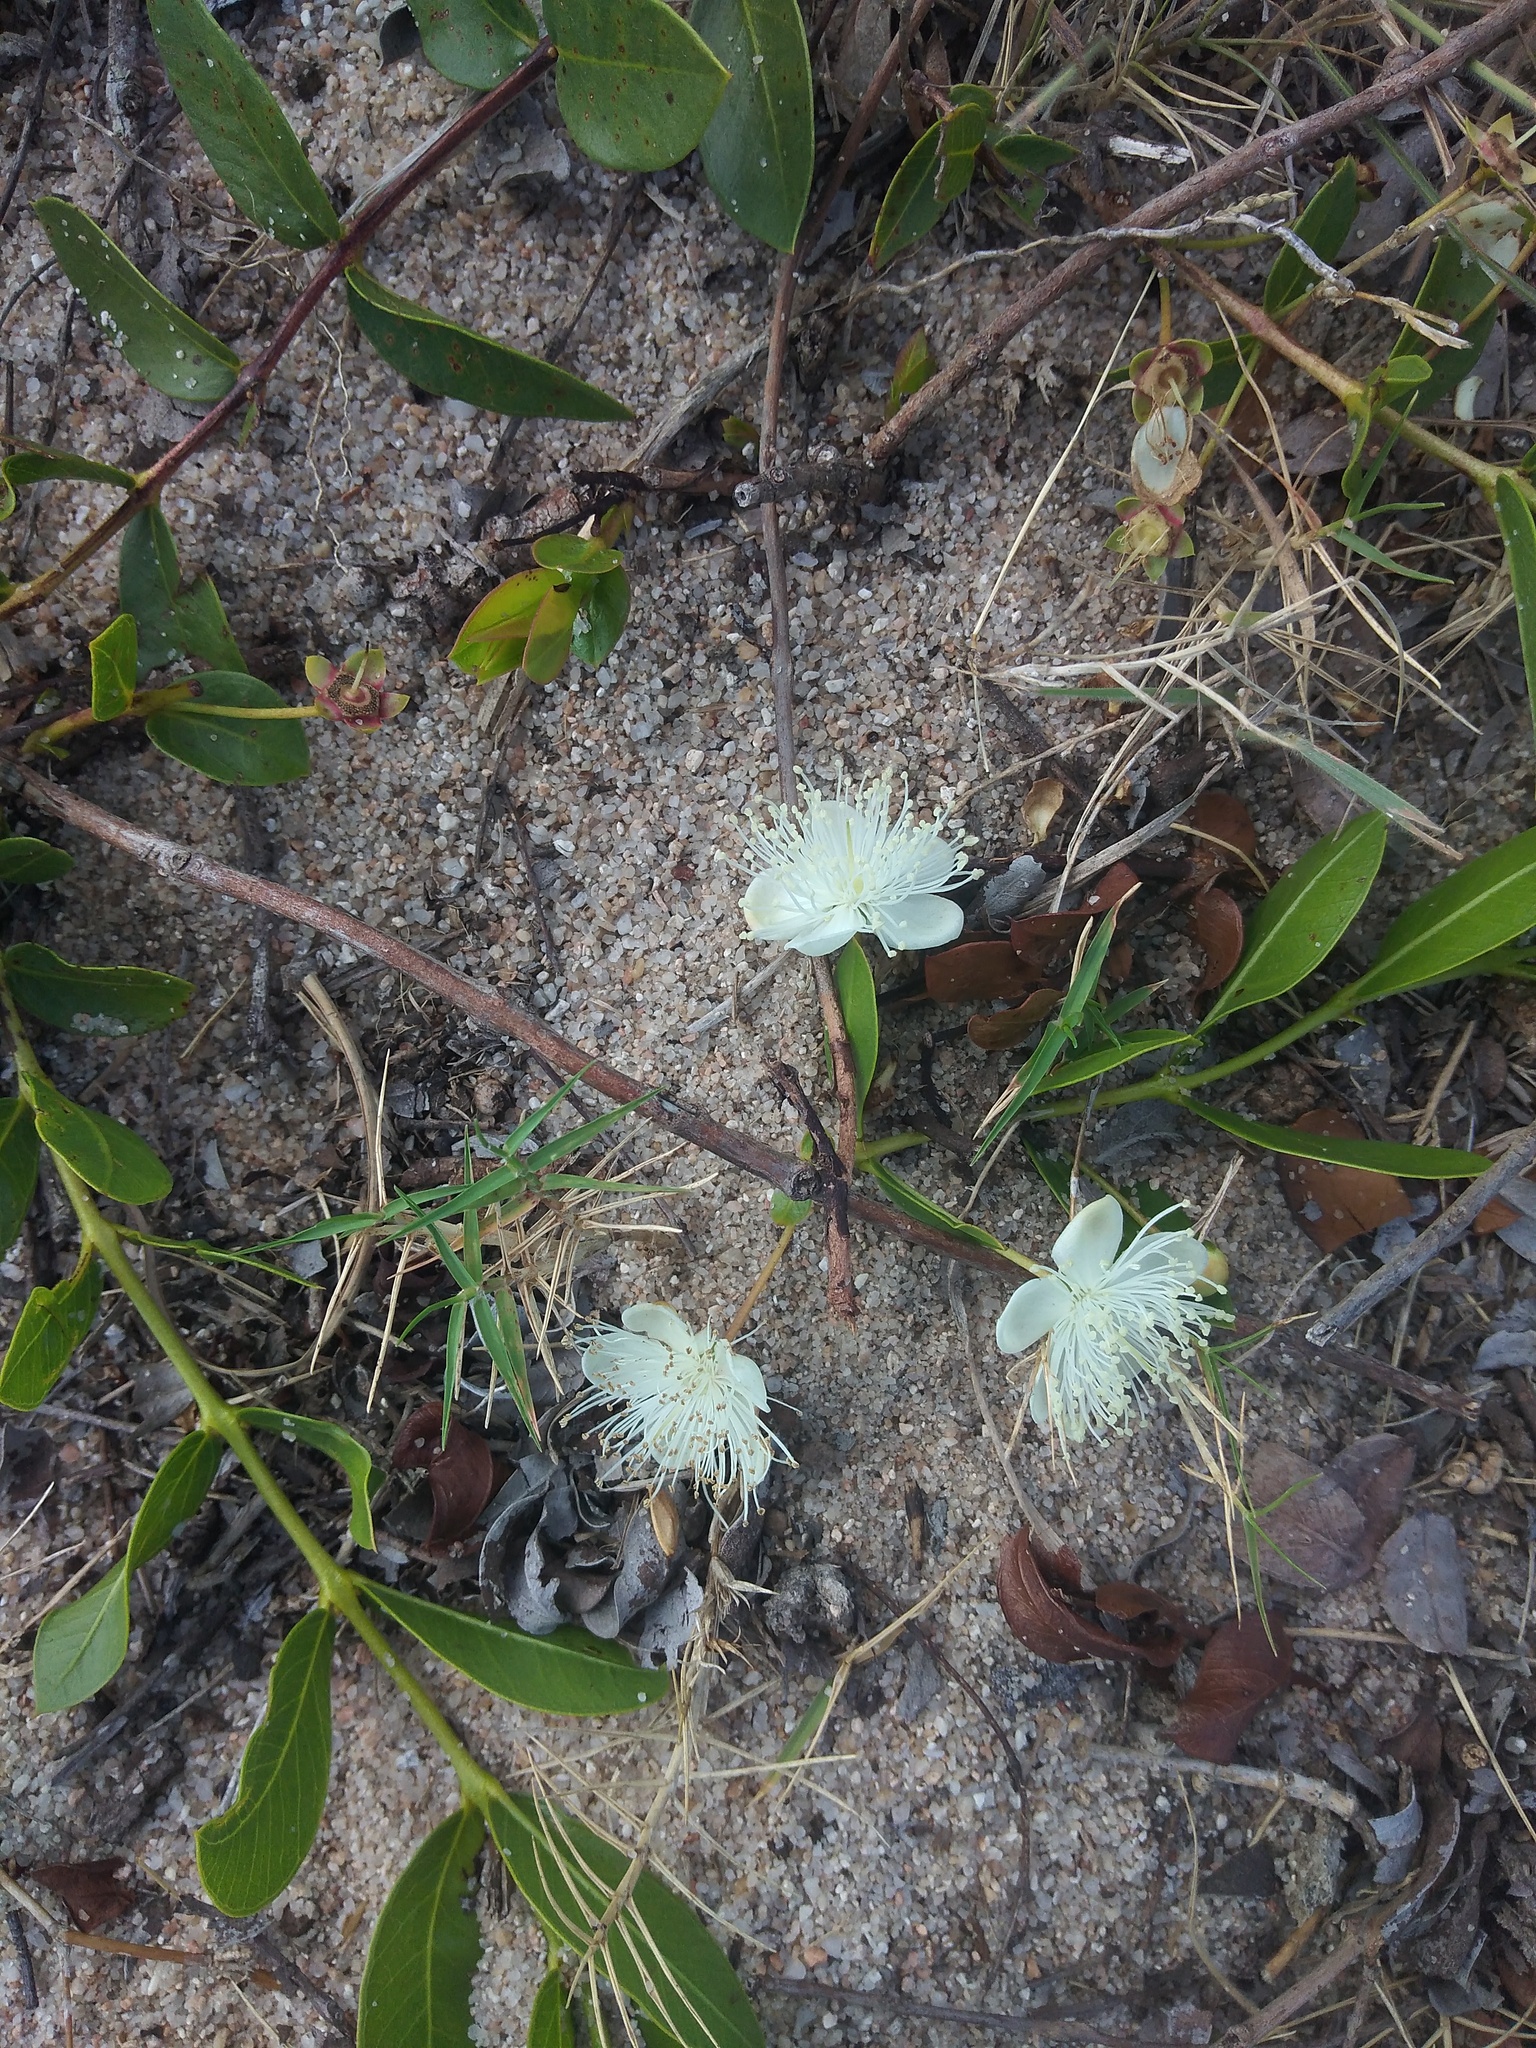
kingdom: Plantae
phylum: Tracheophyta
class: Magnoliopsida
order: Myrtales
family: Myrtaceae
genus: Psidium
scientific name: Psidium salutare
